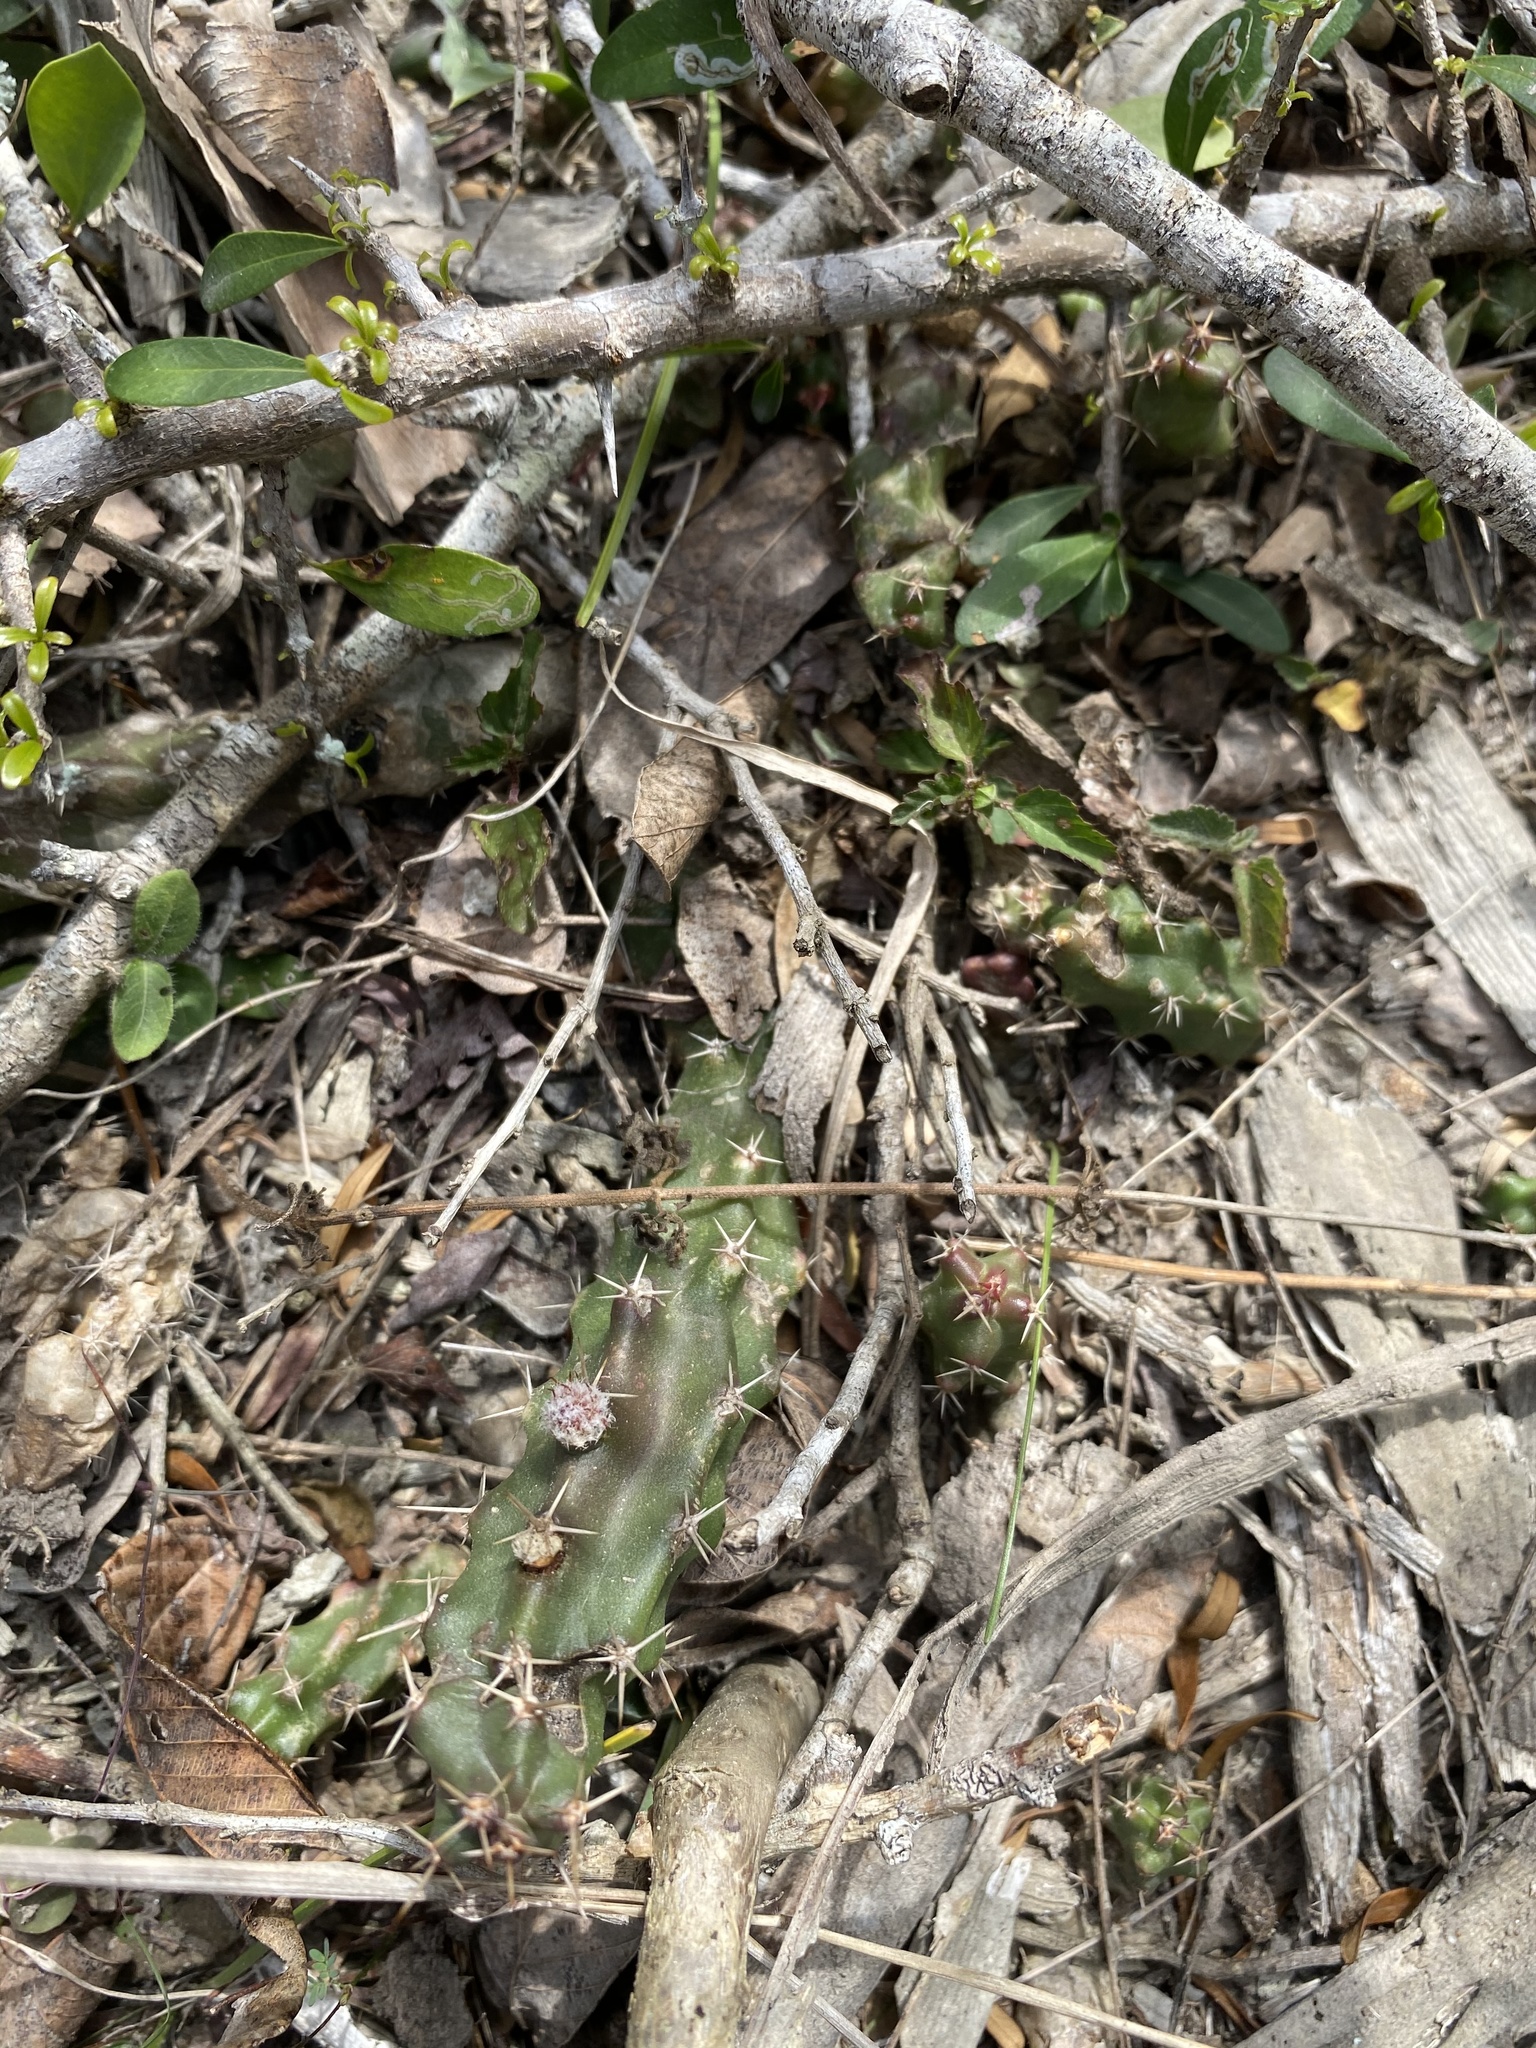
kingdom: Plantae
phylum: Tracheophyta
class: Magnoliopsida
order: Caryophyllales
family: Cactaceae
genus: Echinocereus
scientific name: Echinocereus pentalophus
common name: Ladyfinger cactus
